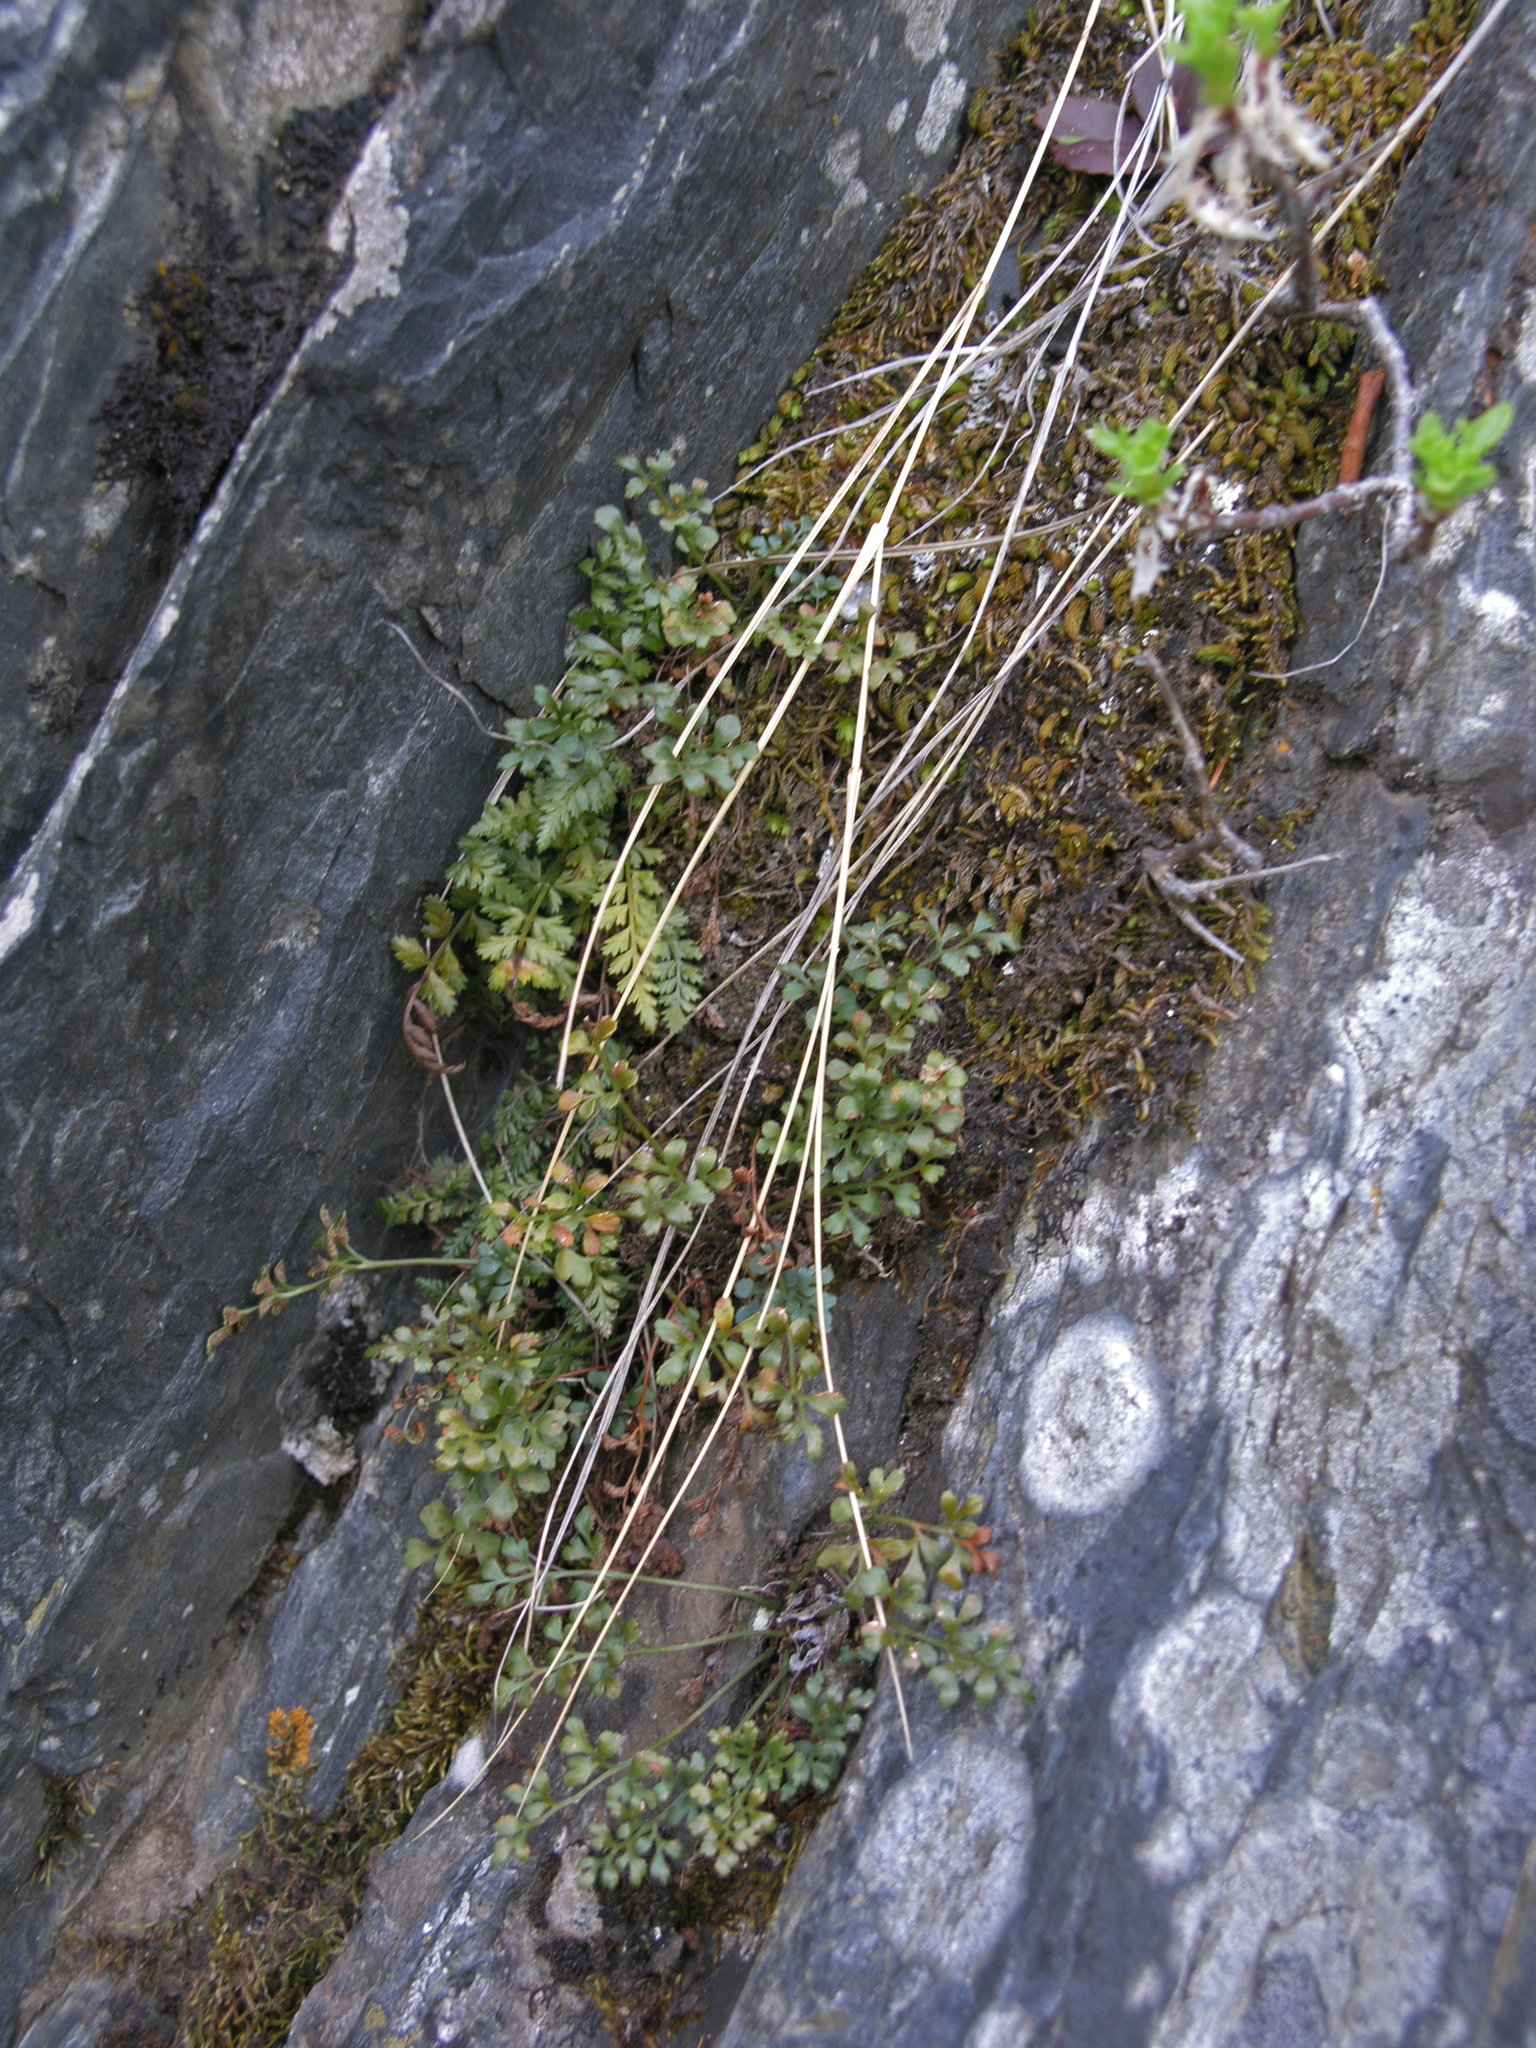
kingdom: Plantae
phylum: Tracheophyta
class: Polypodiopsida
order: Polypodiales
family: Aspleniaceae
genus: Asplenium
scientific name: Asplenium ruta-muraria
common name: Wall-rue
